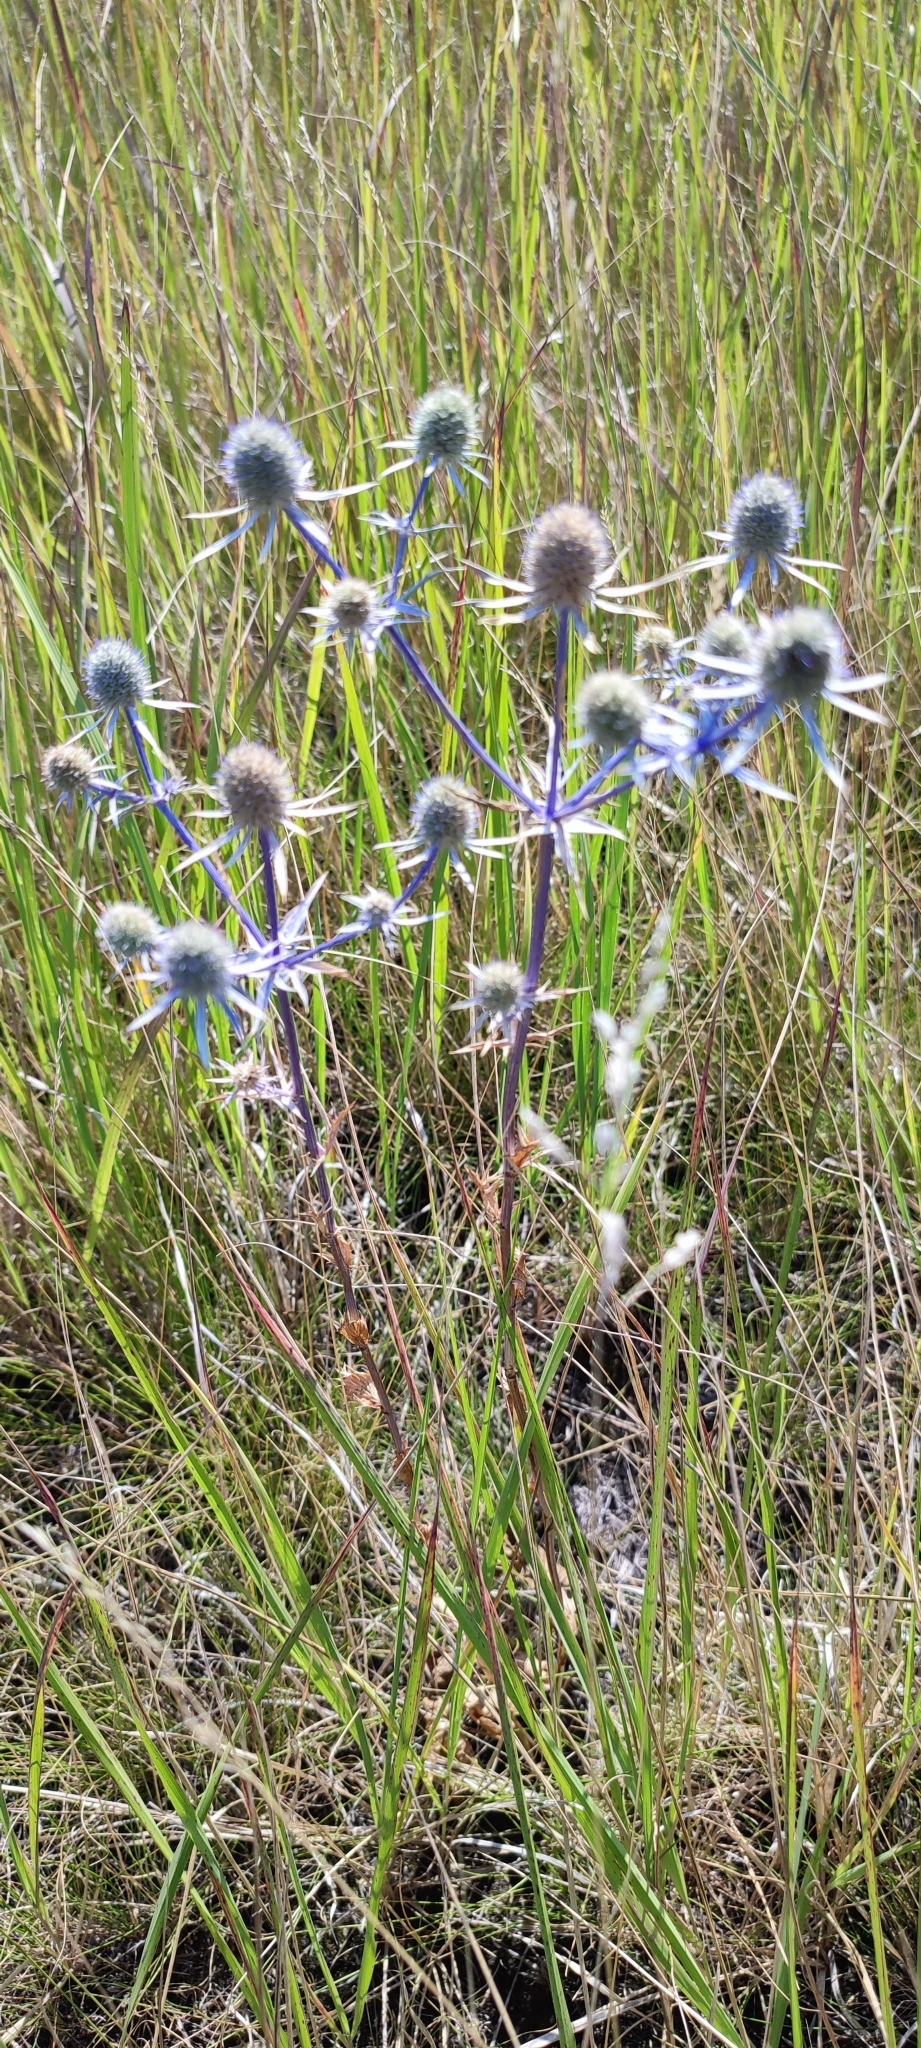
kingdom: Plantae
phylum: Tracheophyta
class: Magnoliopsida
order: Apiales
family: Apiaceae
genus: Eryngium
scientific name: Eryngium planum
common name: Blue eryngo
